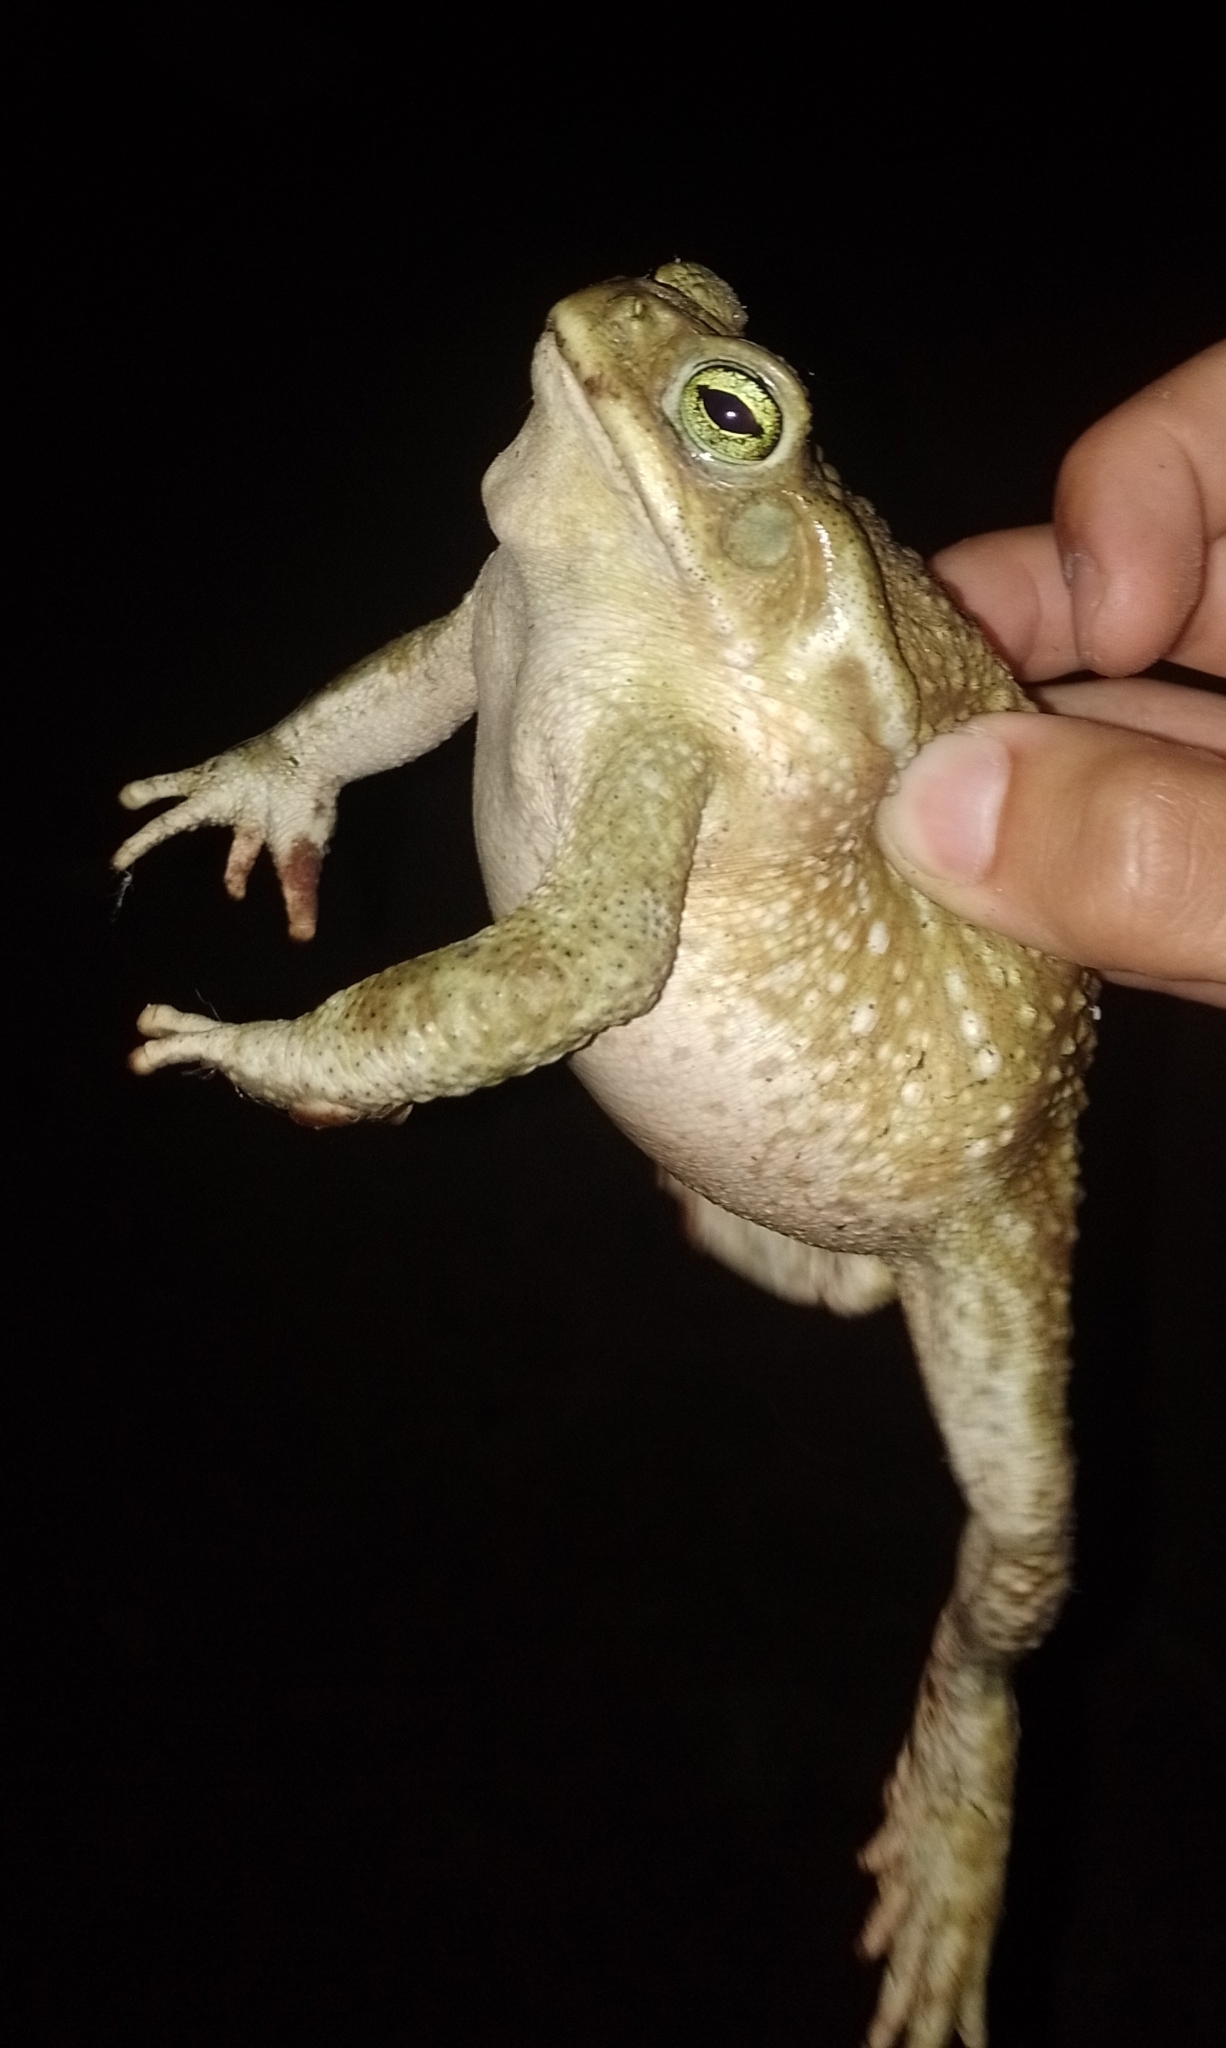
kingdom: Animalia
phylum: Chordata
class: Amphibia
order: Anura
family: Bufonidae
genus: Rhinella
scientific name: Rhinella arenarum
